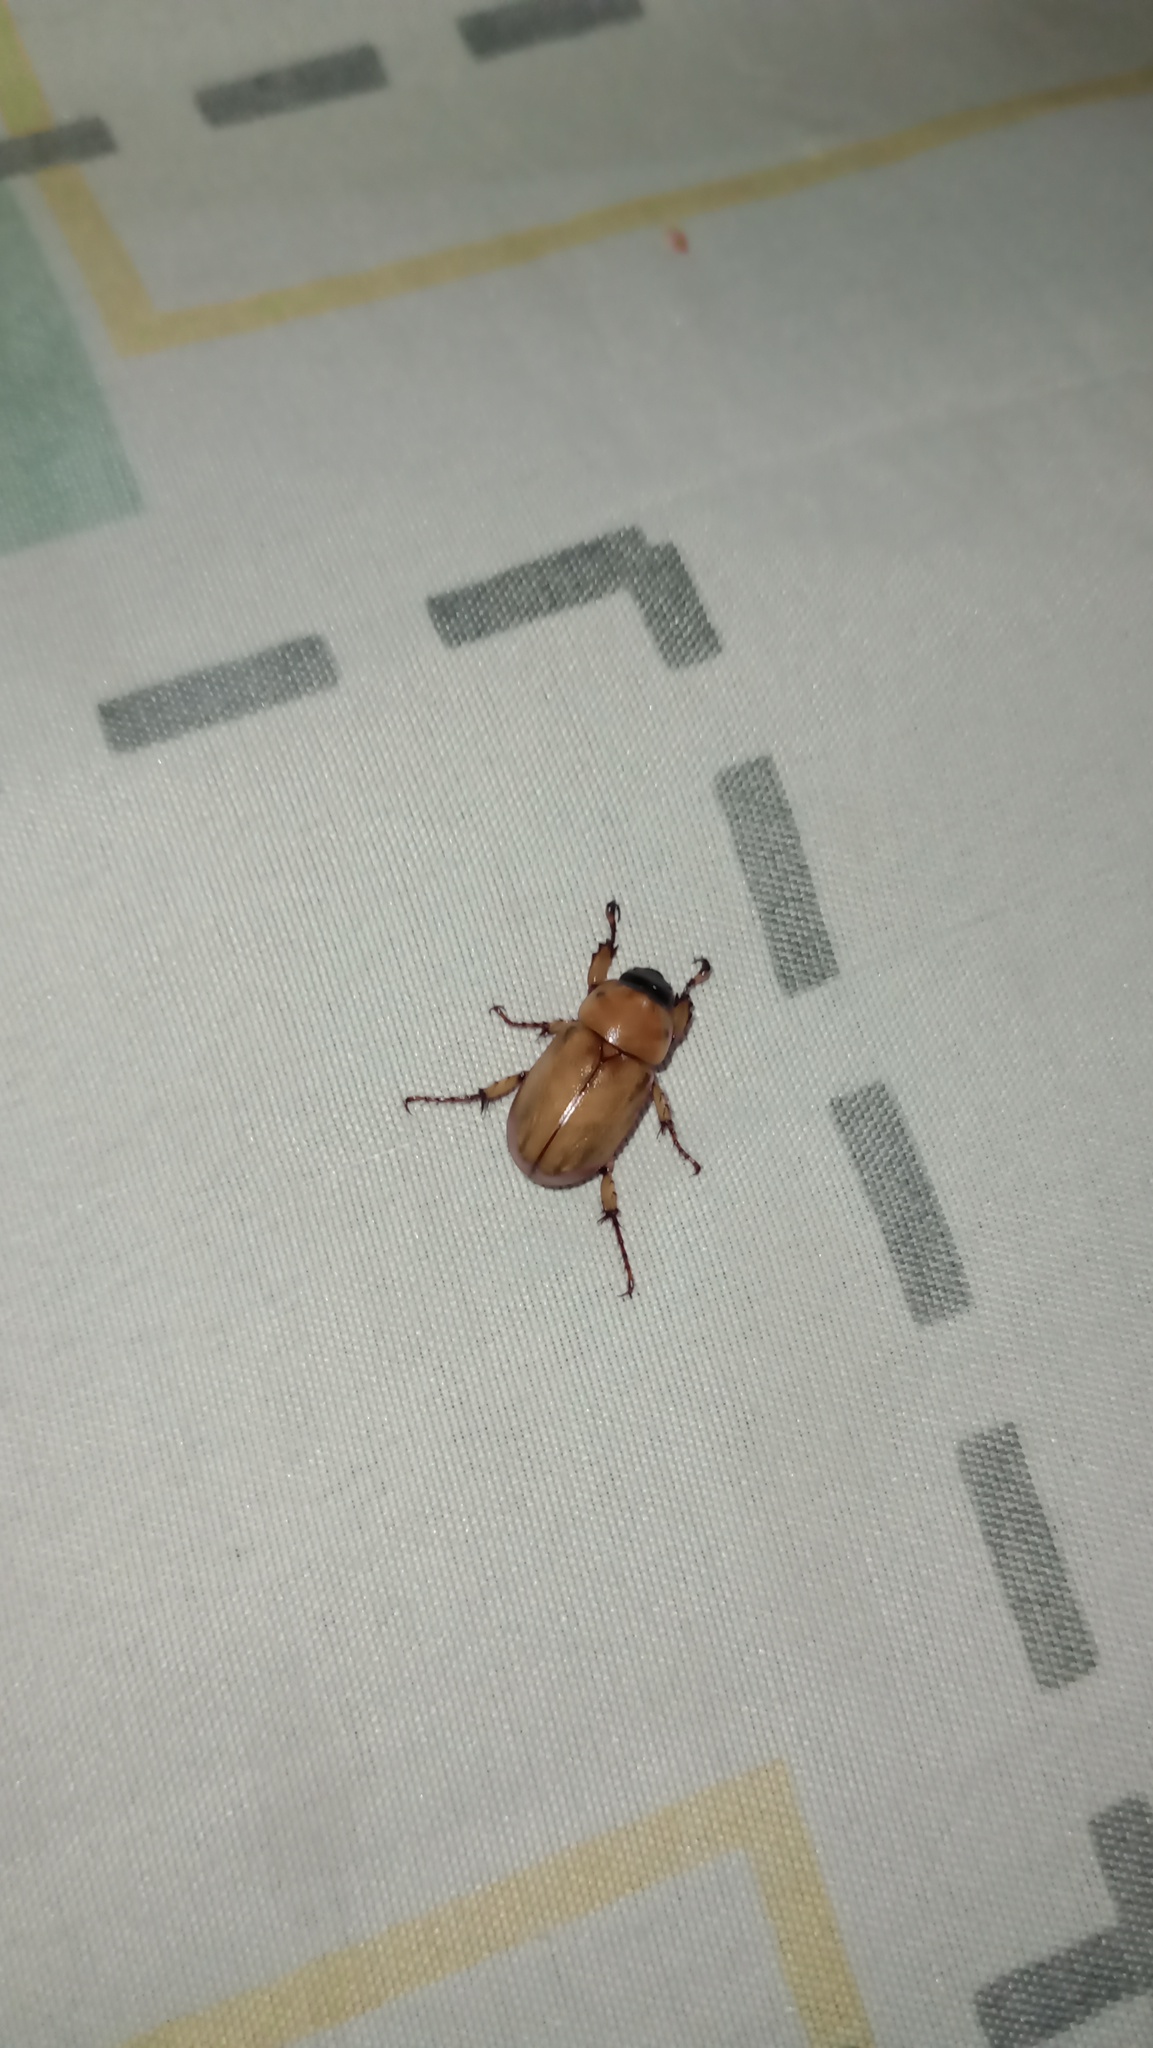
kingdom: Animalia
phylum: Arthropoda
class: Insecta
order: Coleoptera
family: Scarabaeidae
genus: Cyclocephala
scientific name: Cyclocephala putrida
